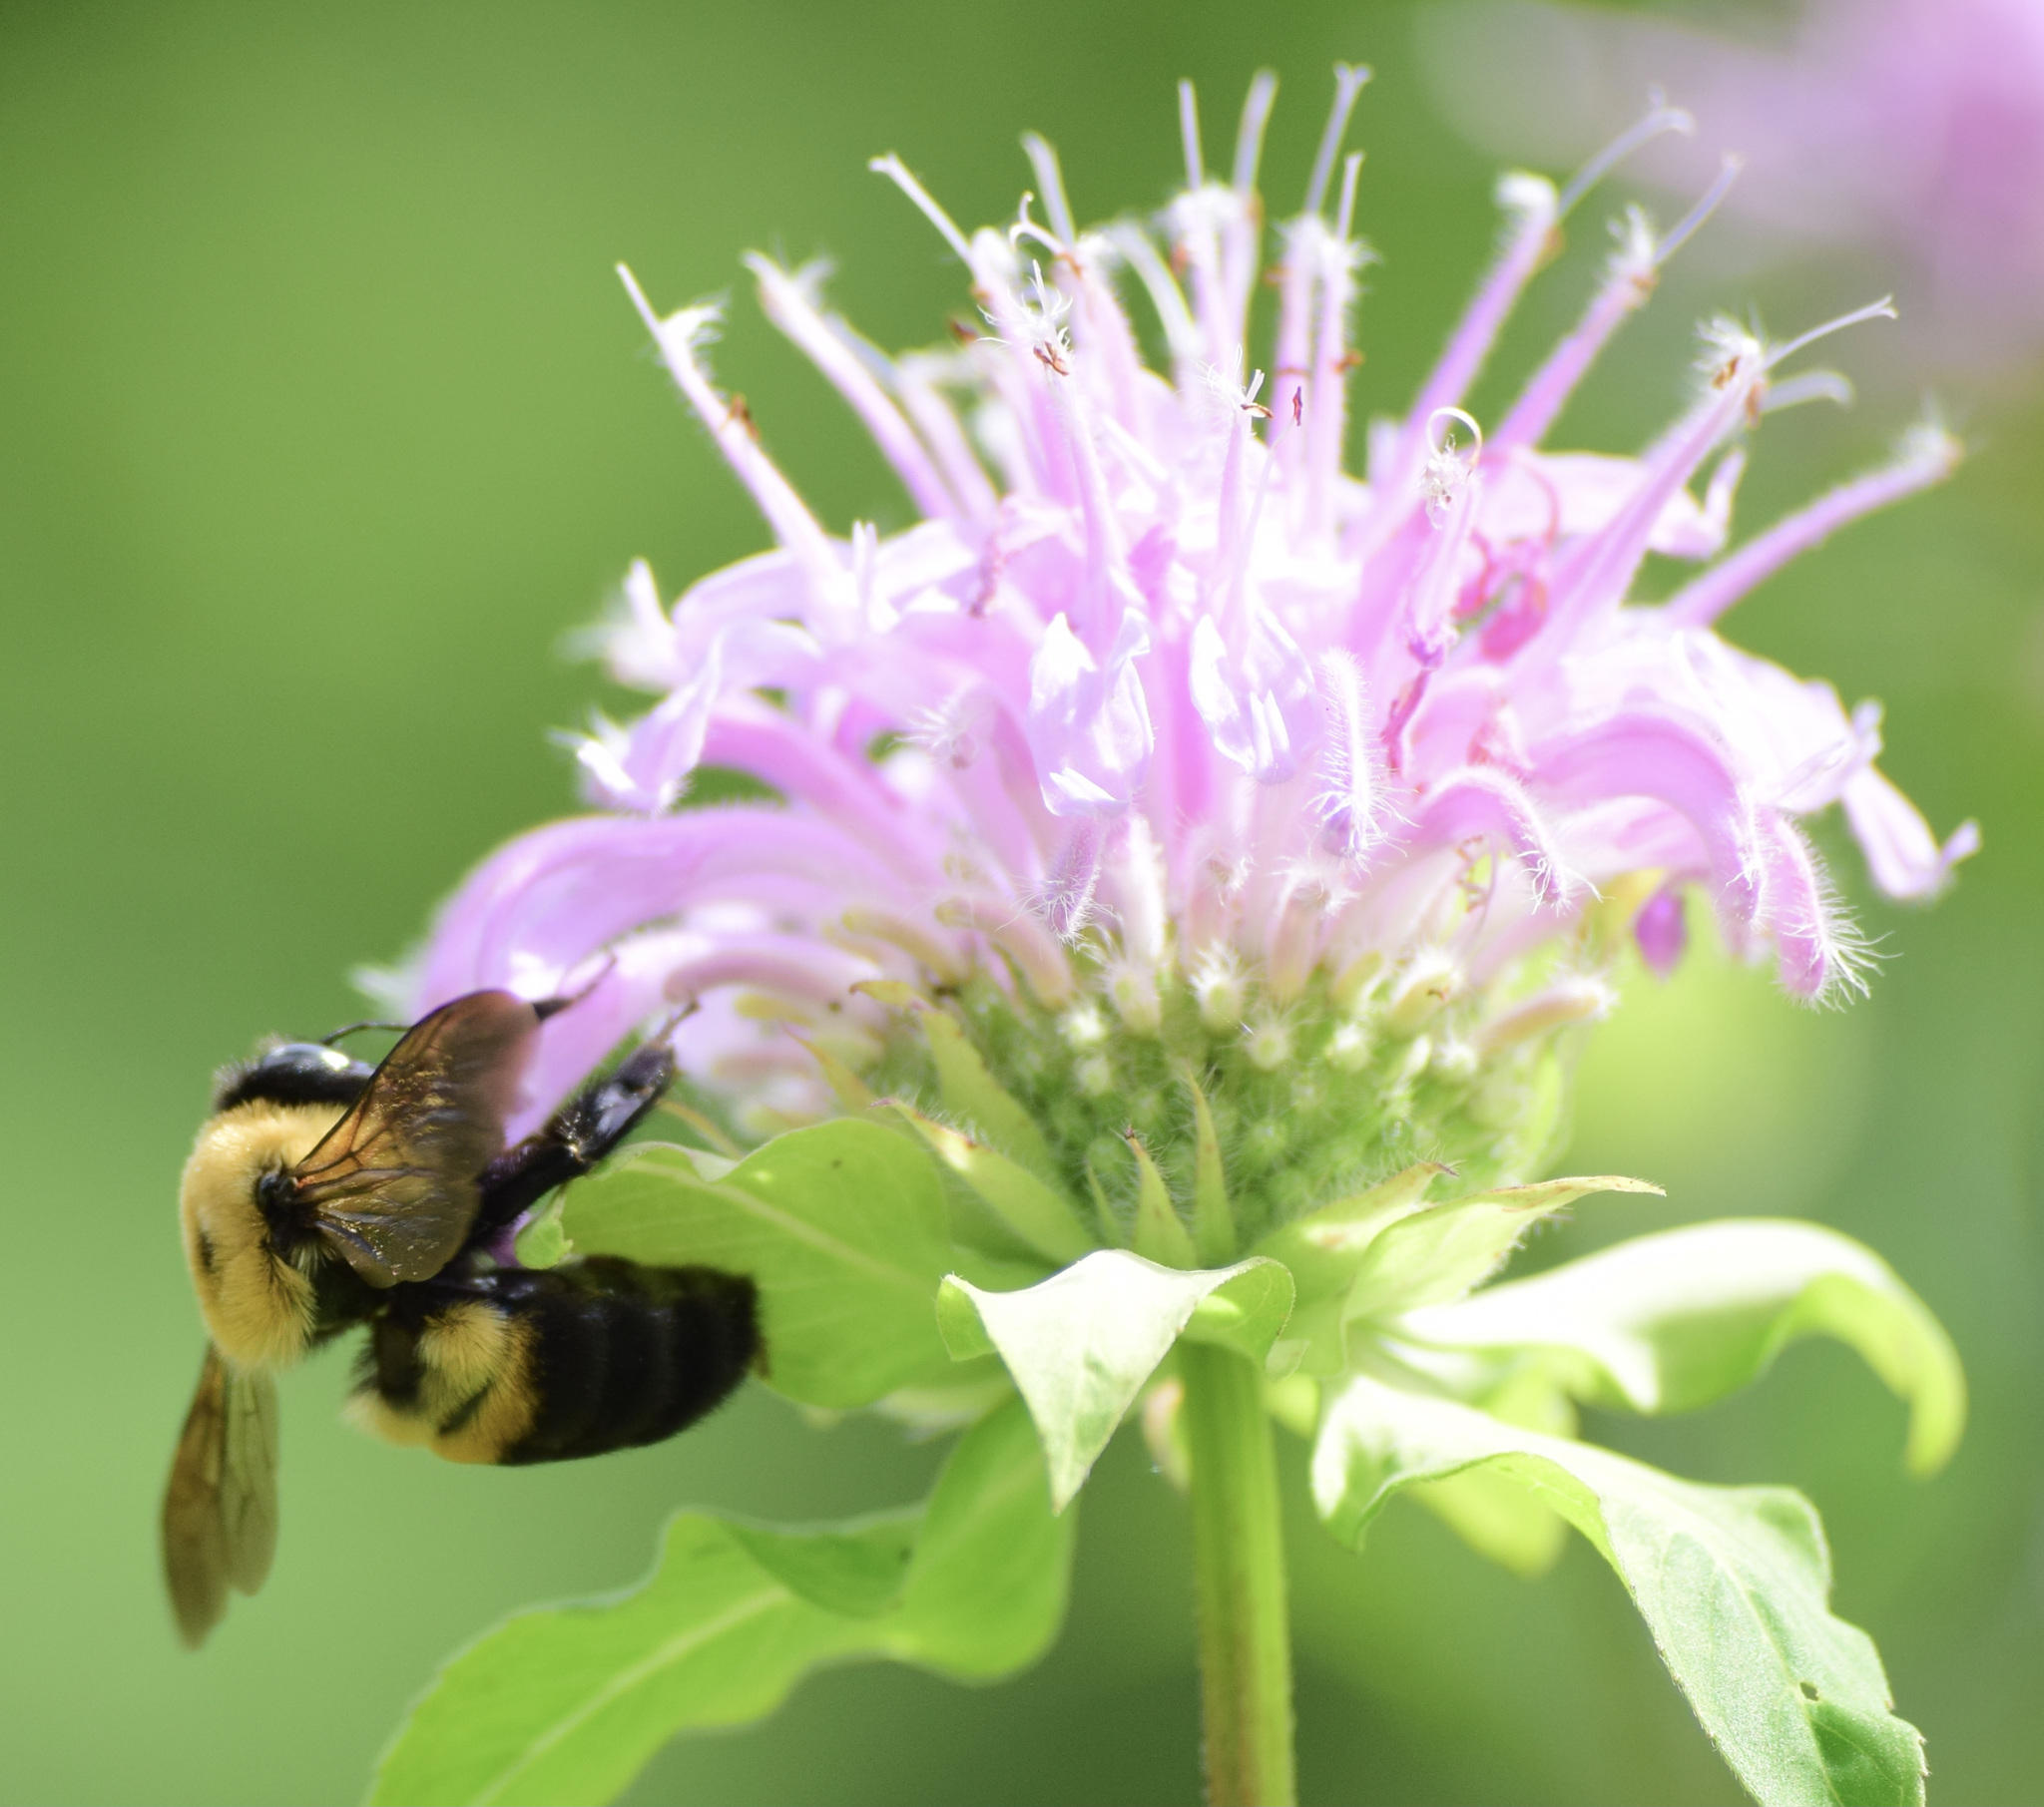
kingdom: Animalia
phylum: Arthropoda
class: Insecta
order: Hymenoptera
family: Apidae
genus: Bombus
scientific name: Bombus griseocollis
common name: Brown-belted bumble bee
